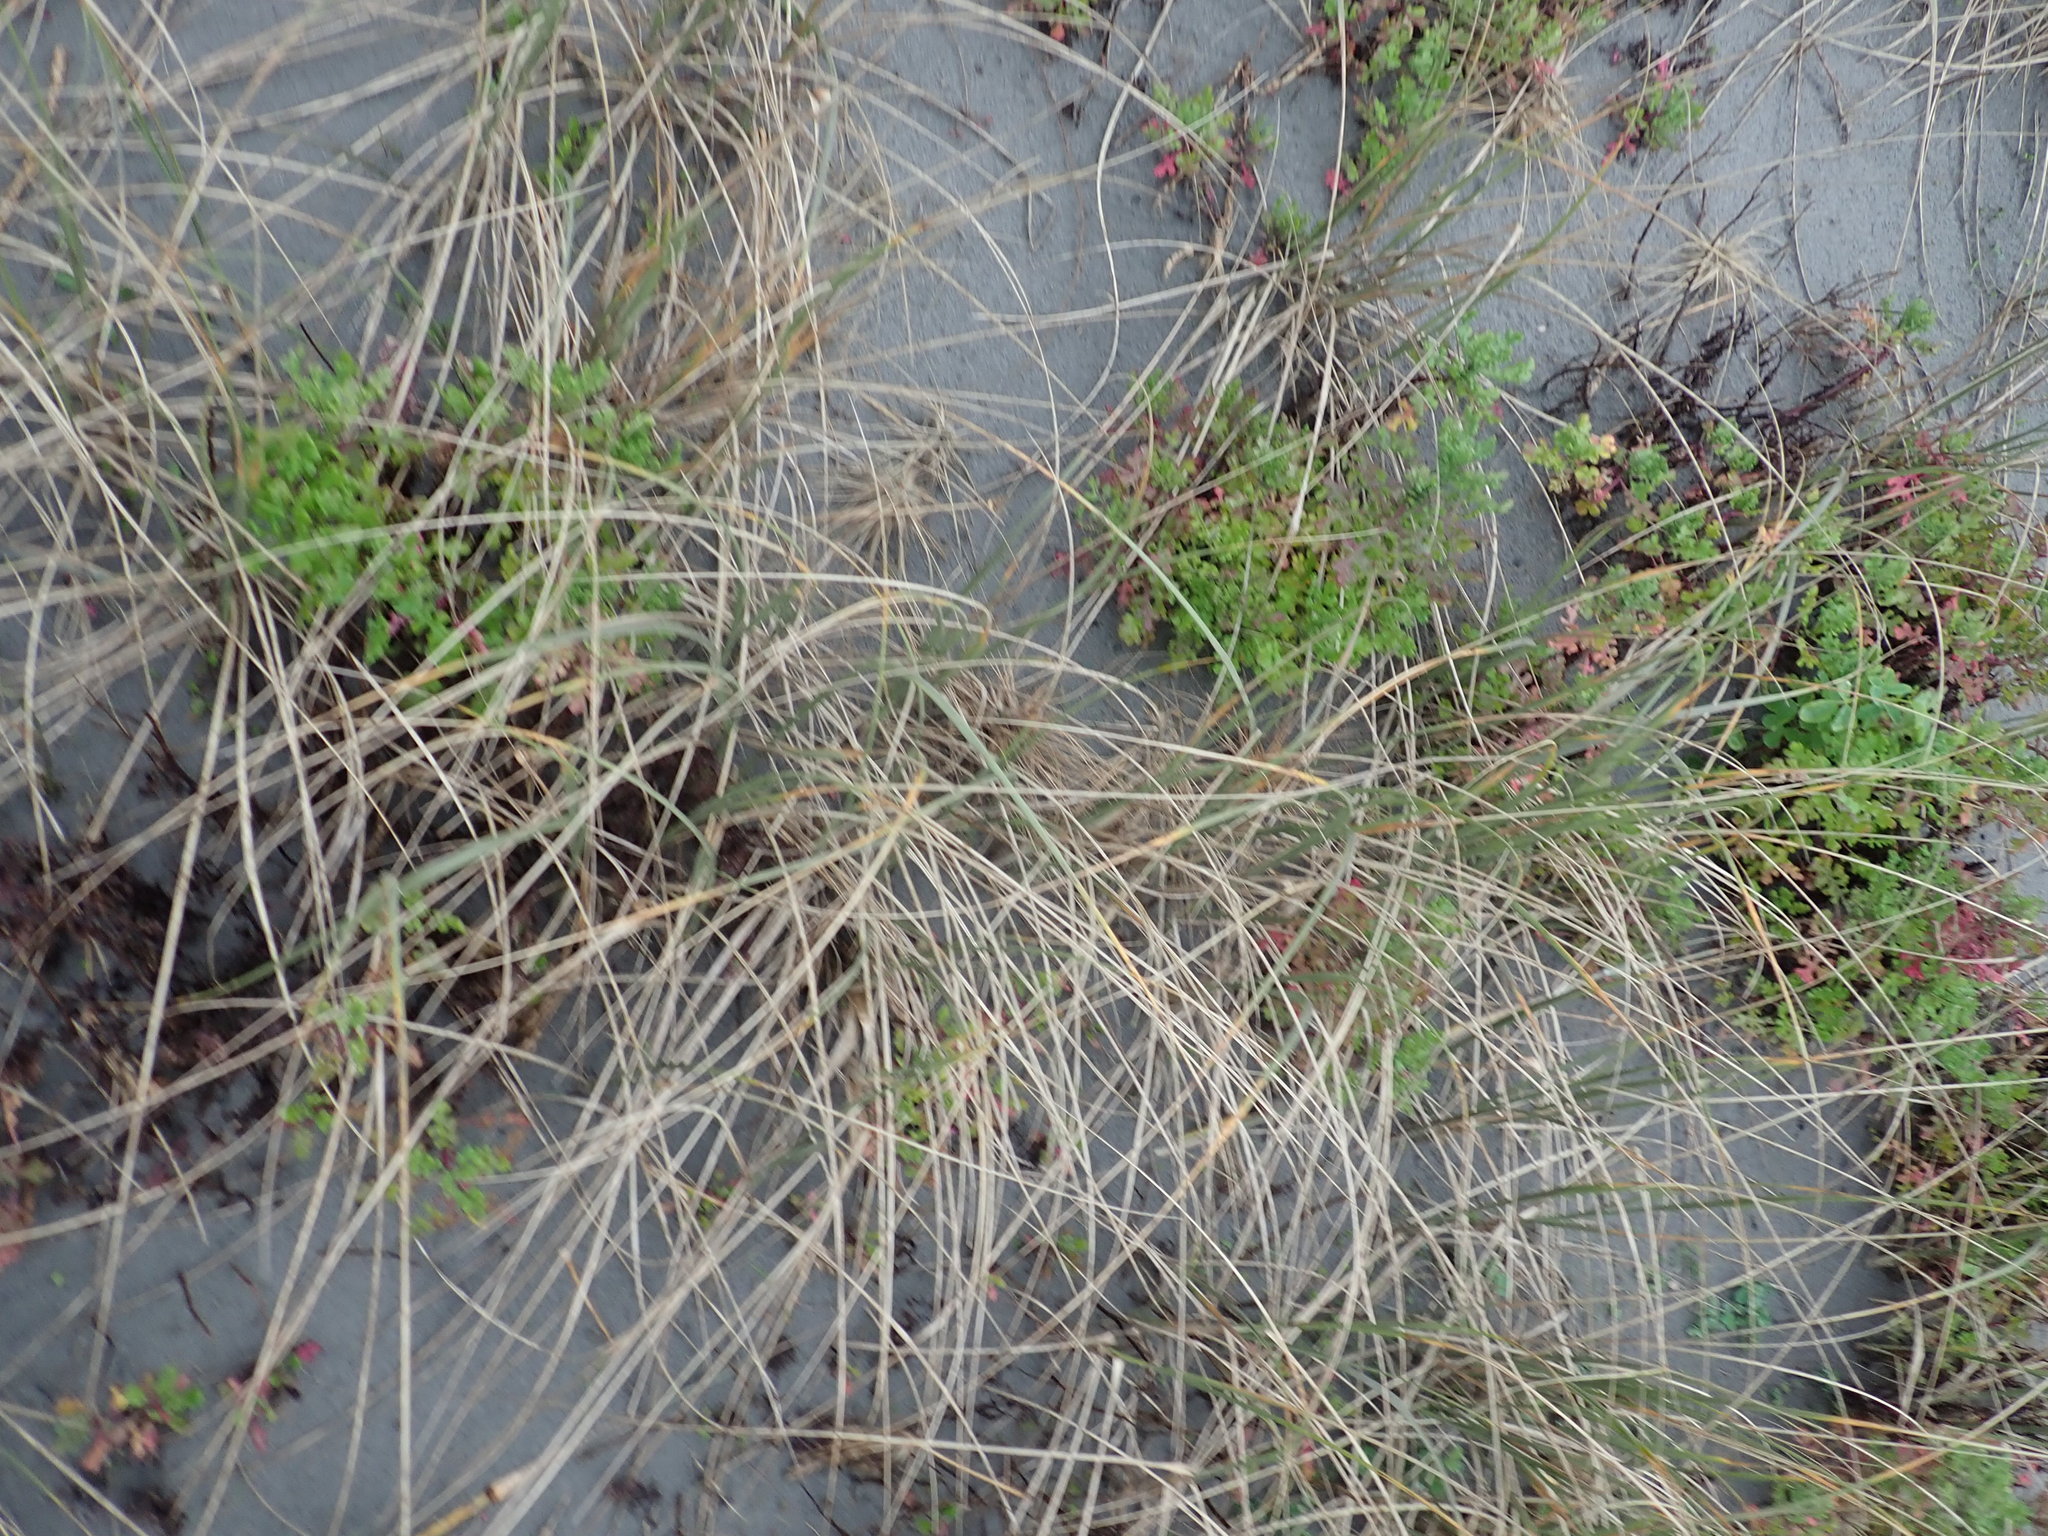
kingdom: Plantae
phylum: Tracheophyta
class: Magnoliopsida
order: Asterales
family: Asteraceae
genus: Senecio
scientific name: Senecio elegans
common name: Purple groundsel
